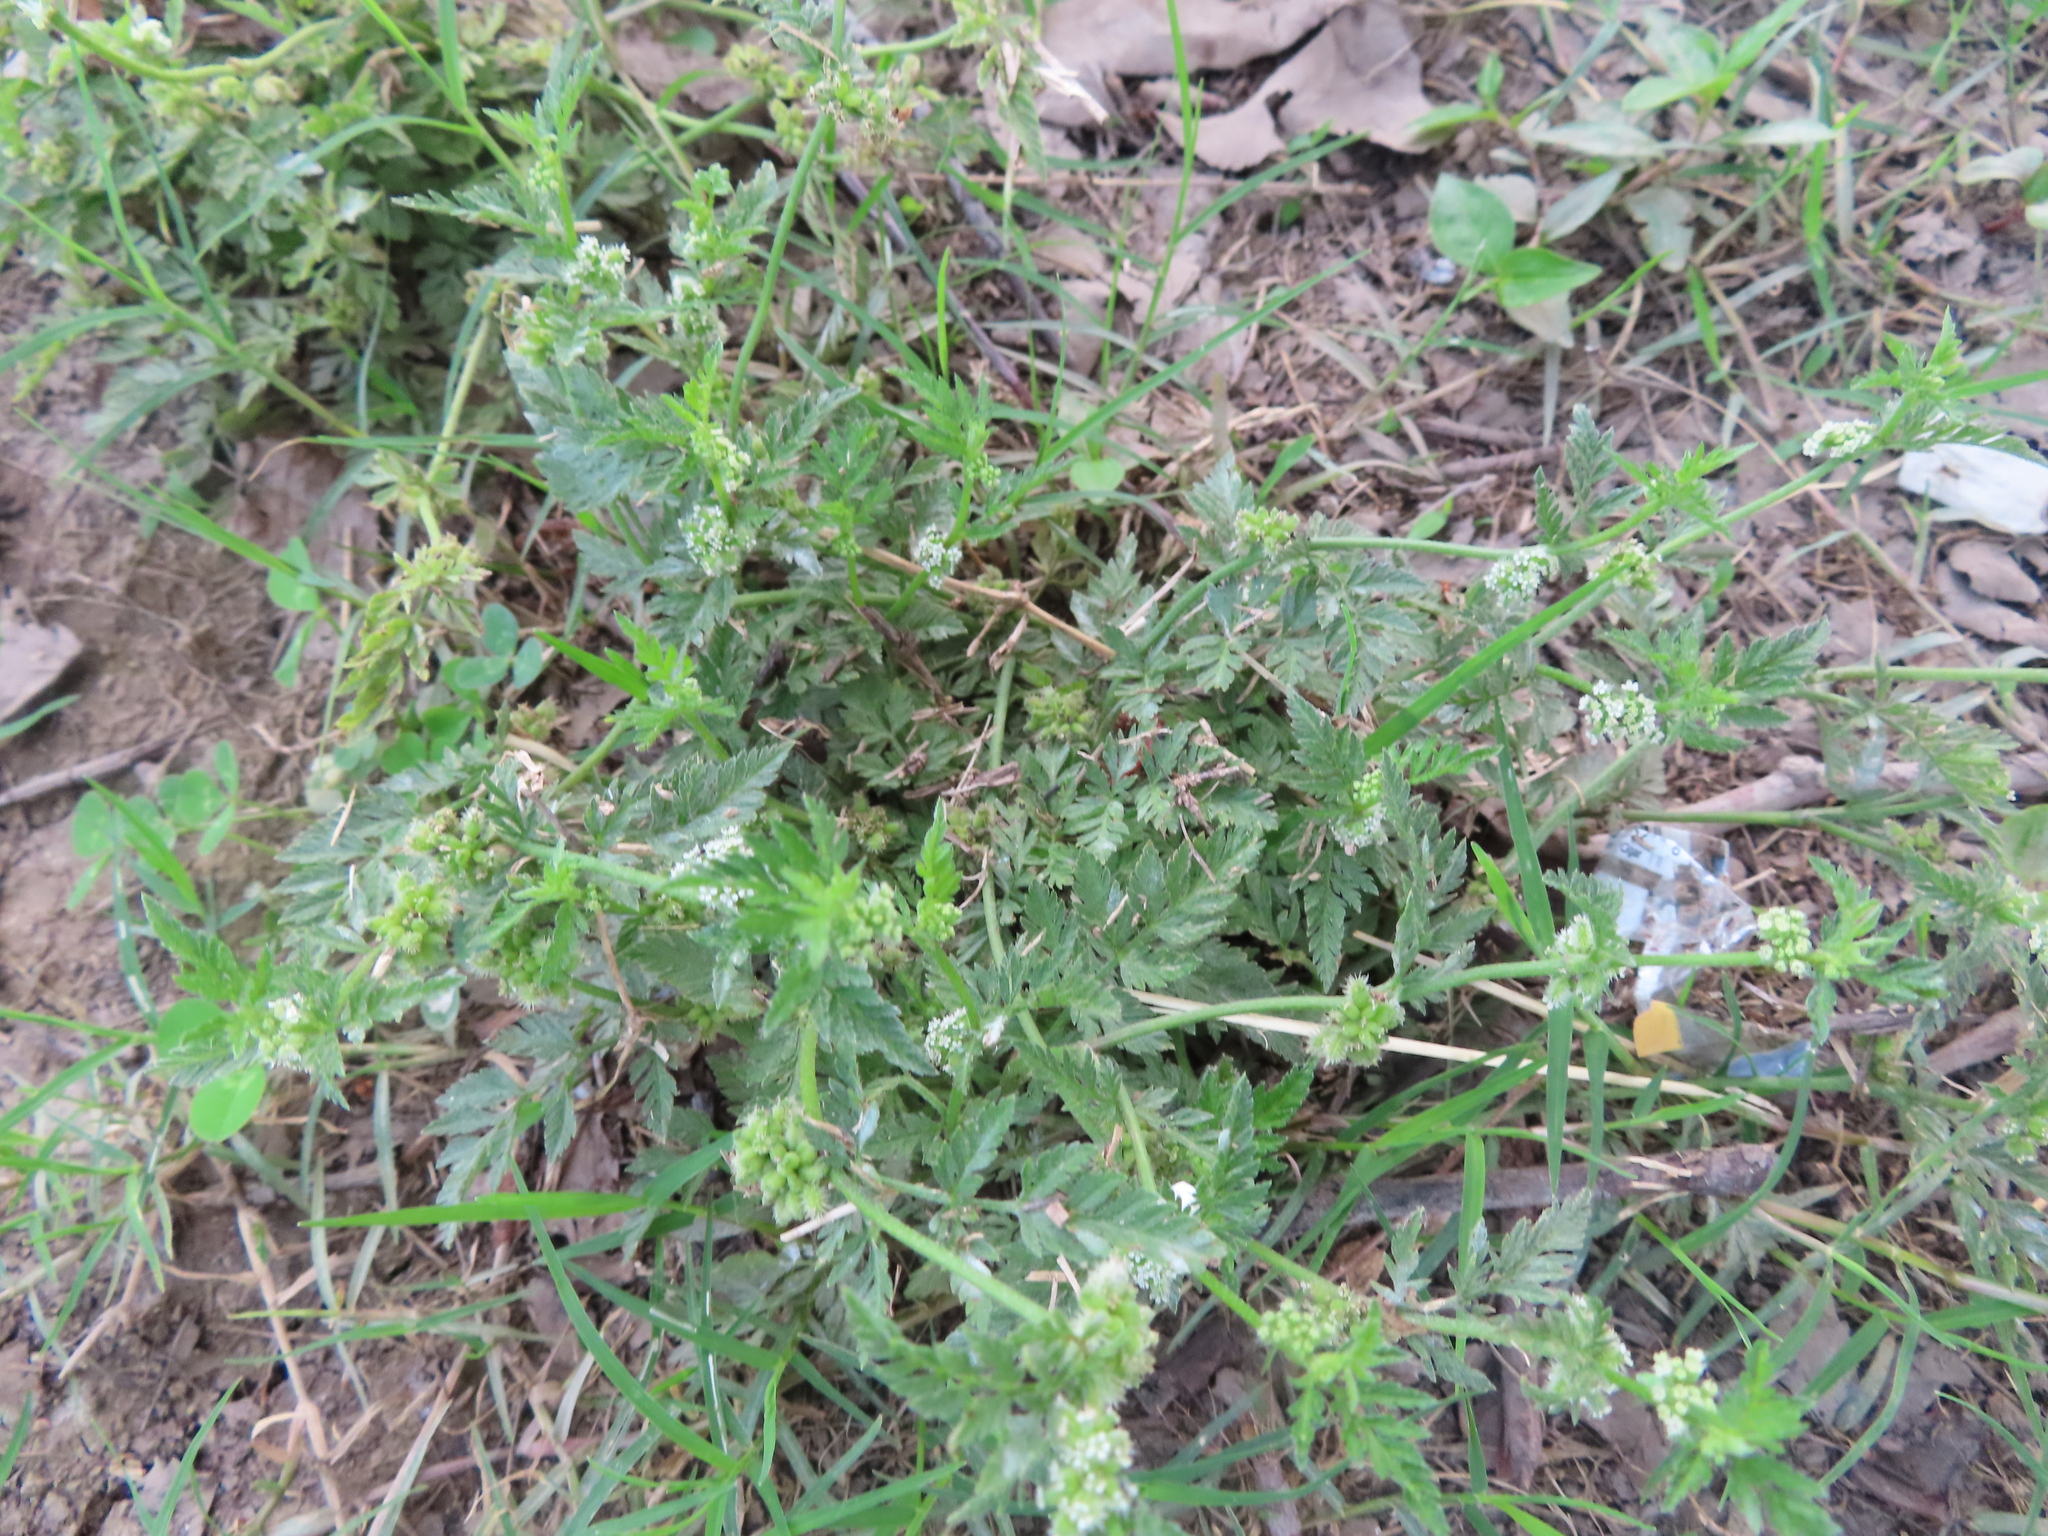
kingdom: Plantae
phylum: Tracheophyta
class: Magnoliopsida
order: Apiales
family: Apiaceae
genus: Torilis
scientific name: Torilis nodosa
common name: Knotted hedge-parsley
